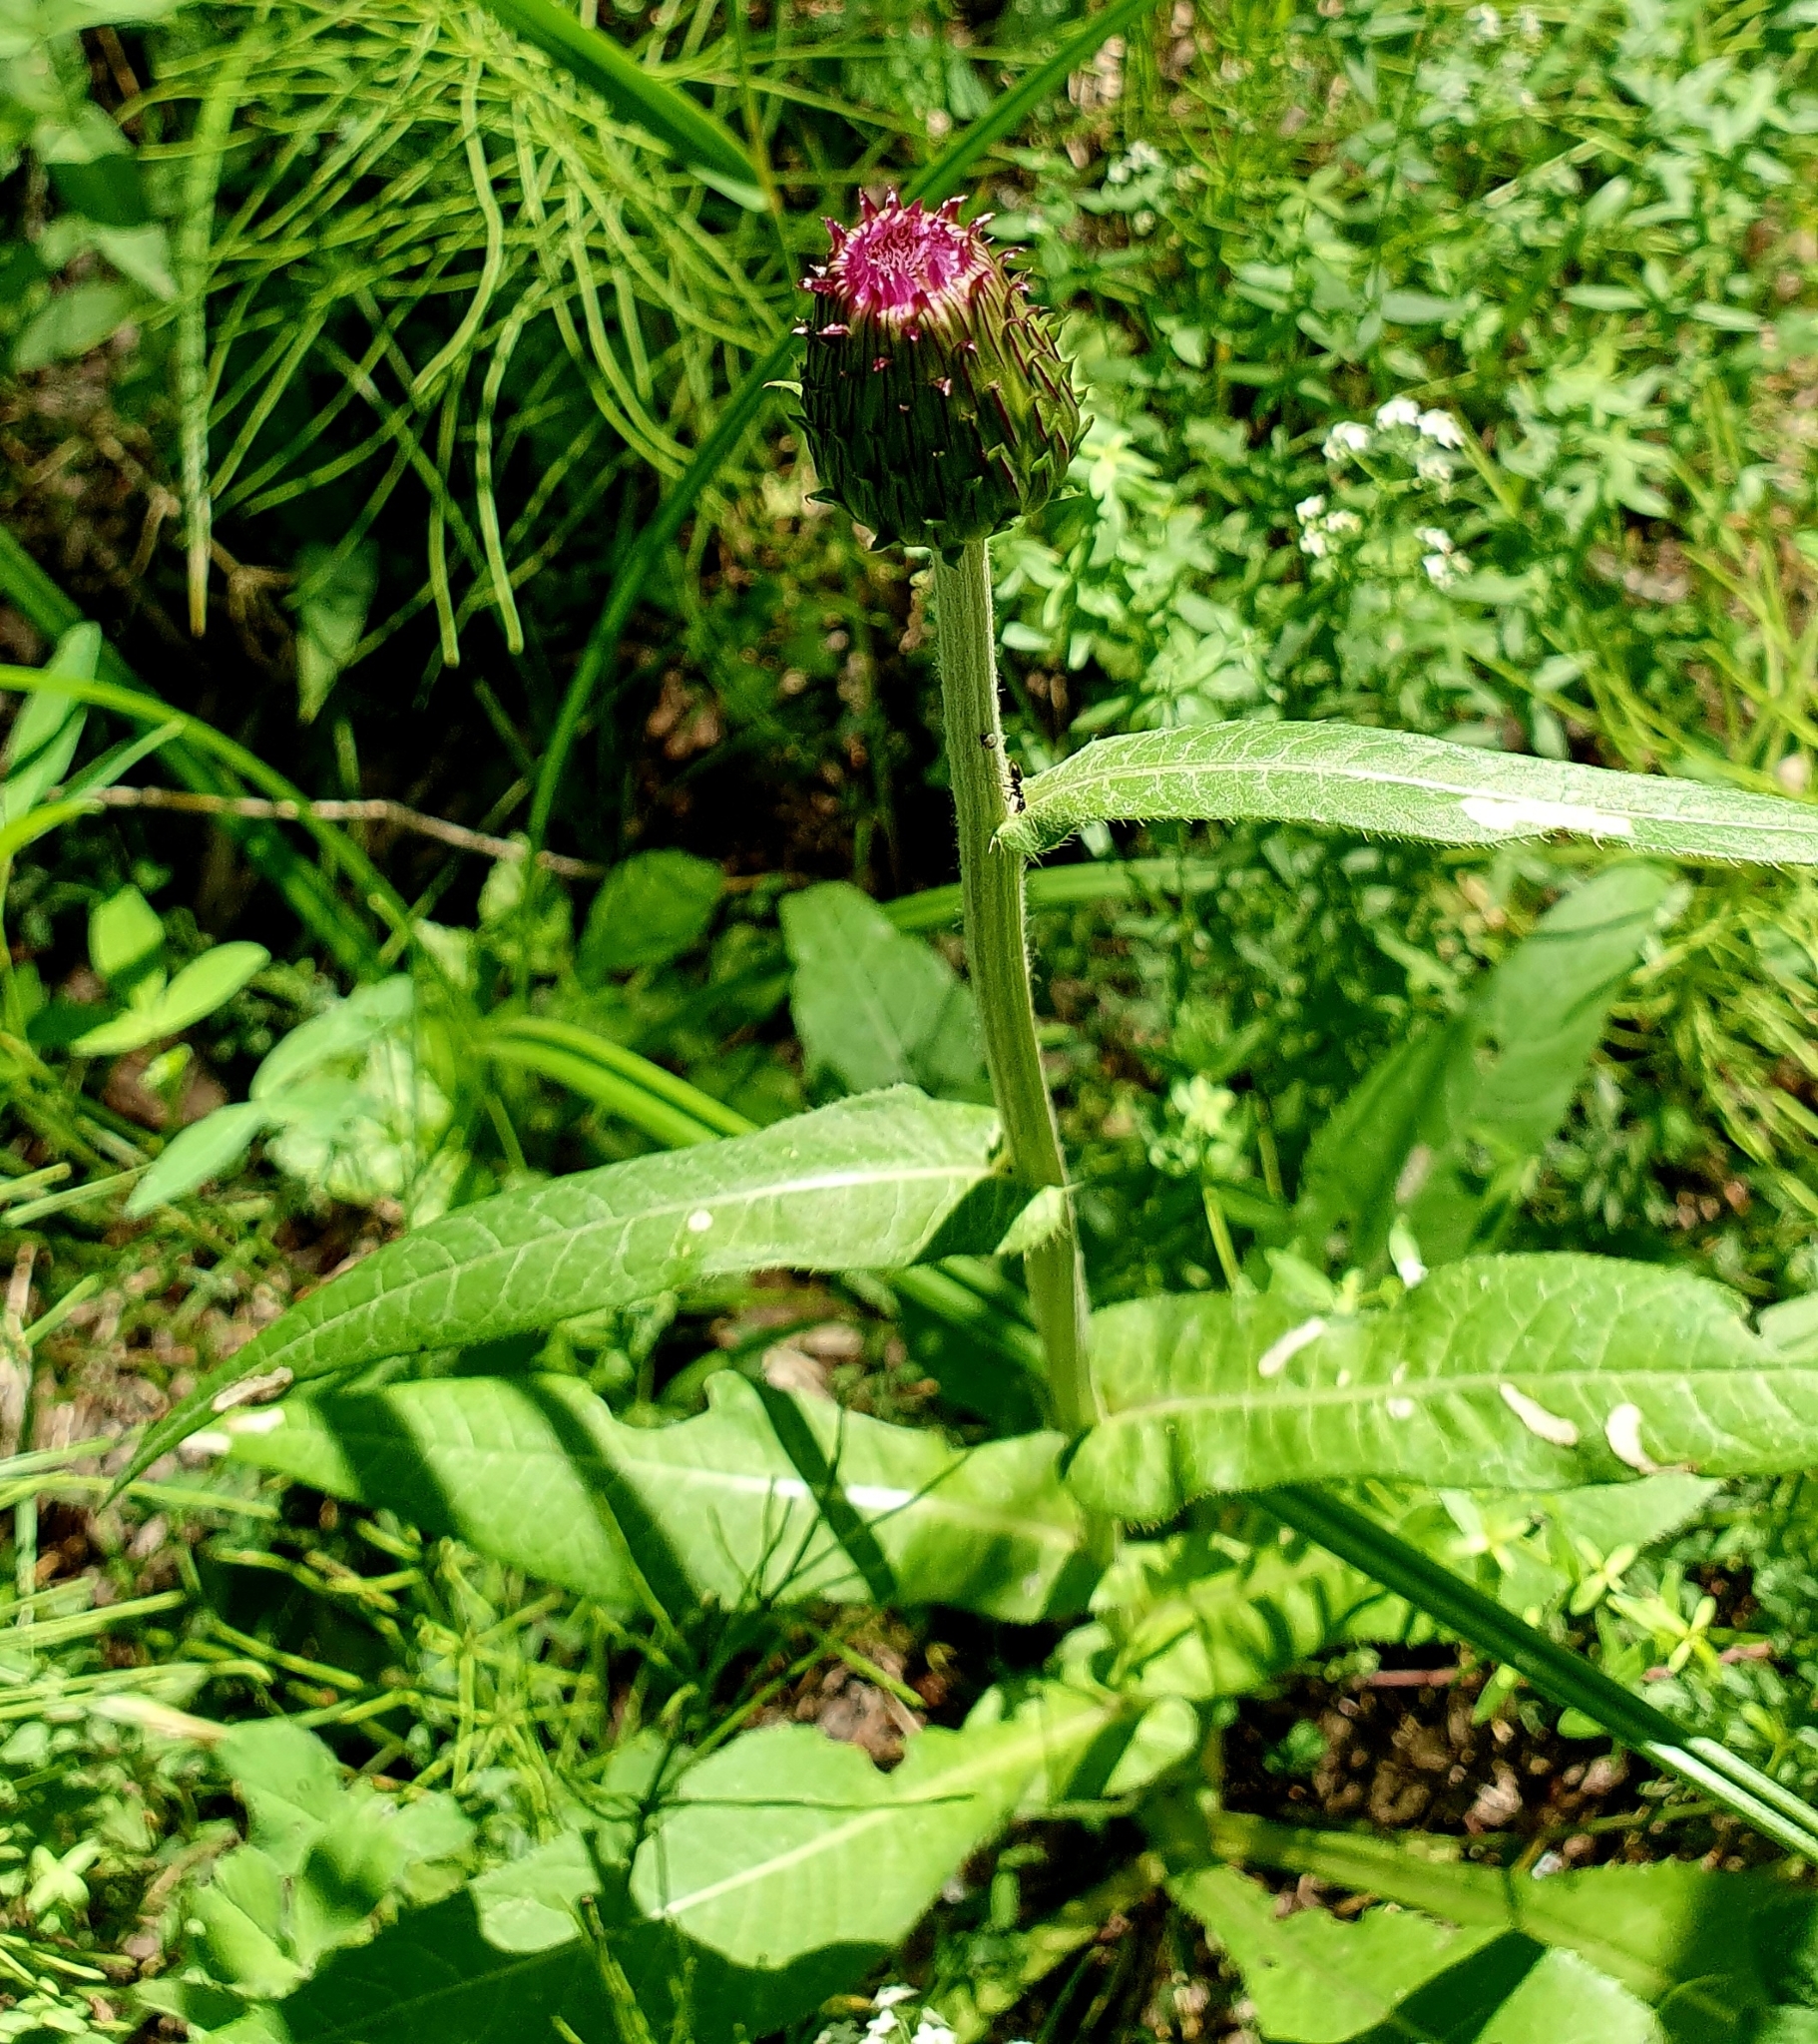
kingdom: Plantae
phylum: Tracheophyta
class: Magnoliopsida
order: Asterales
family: Asteraceae
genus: Cirsium
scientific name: Cirsium heterophyllum
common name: Melancholy thistle
